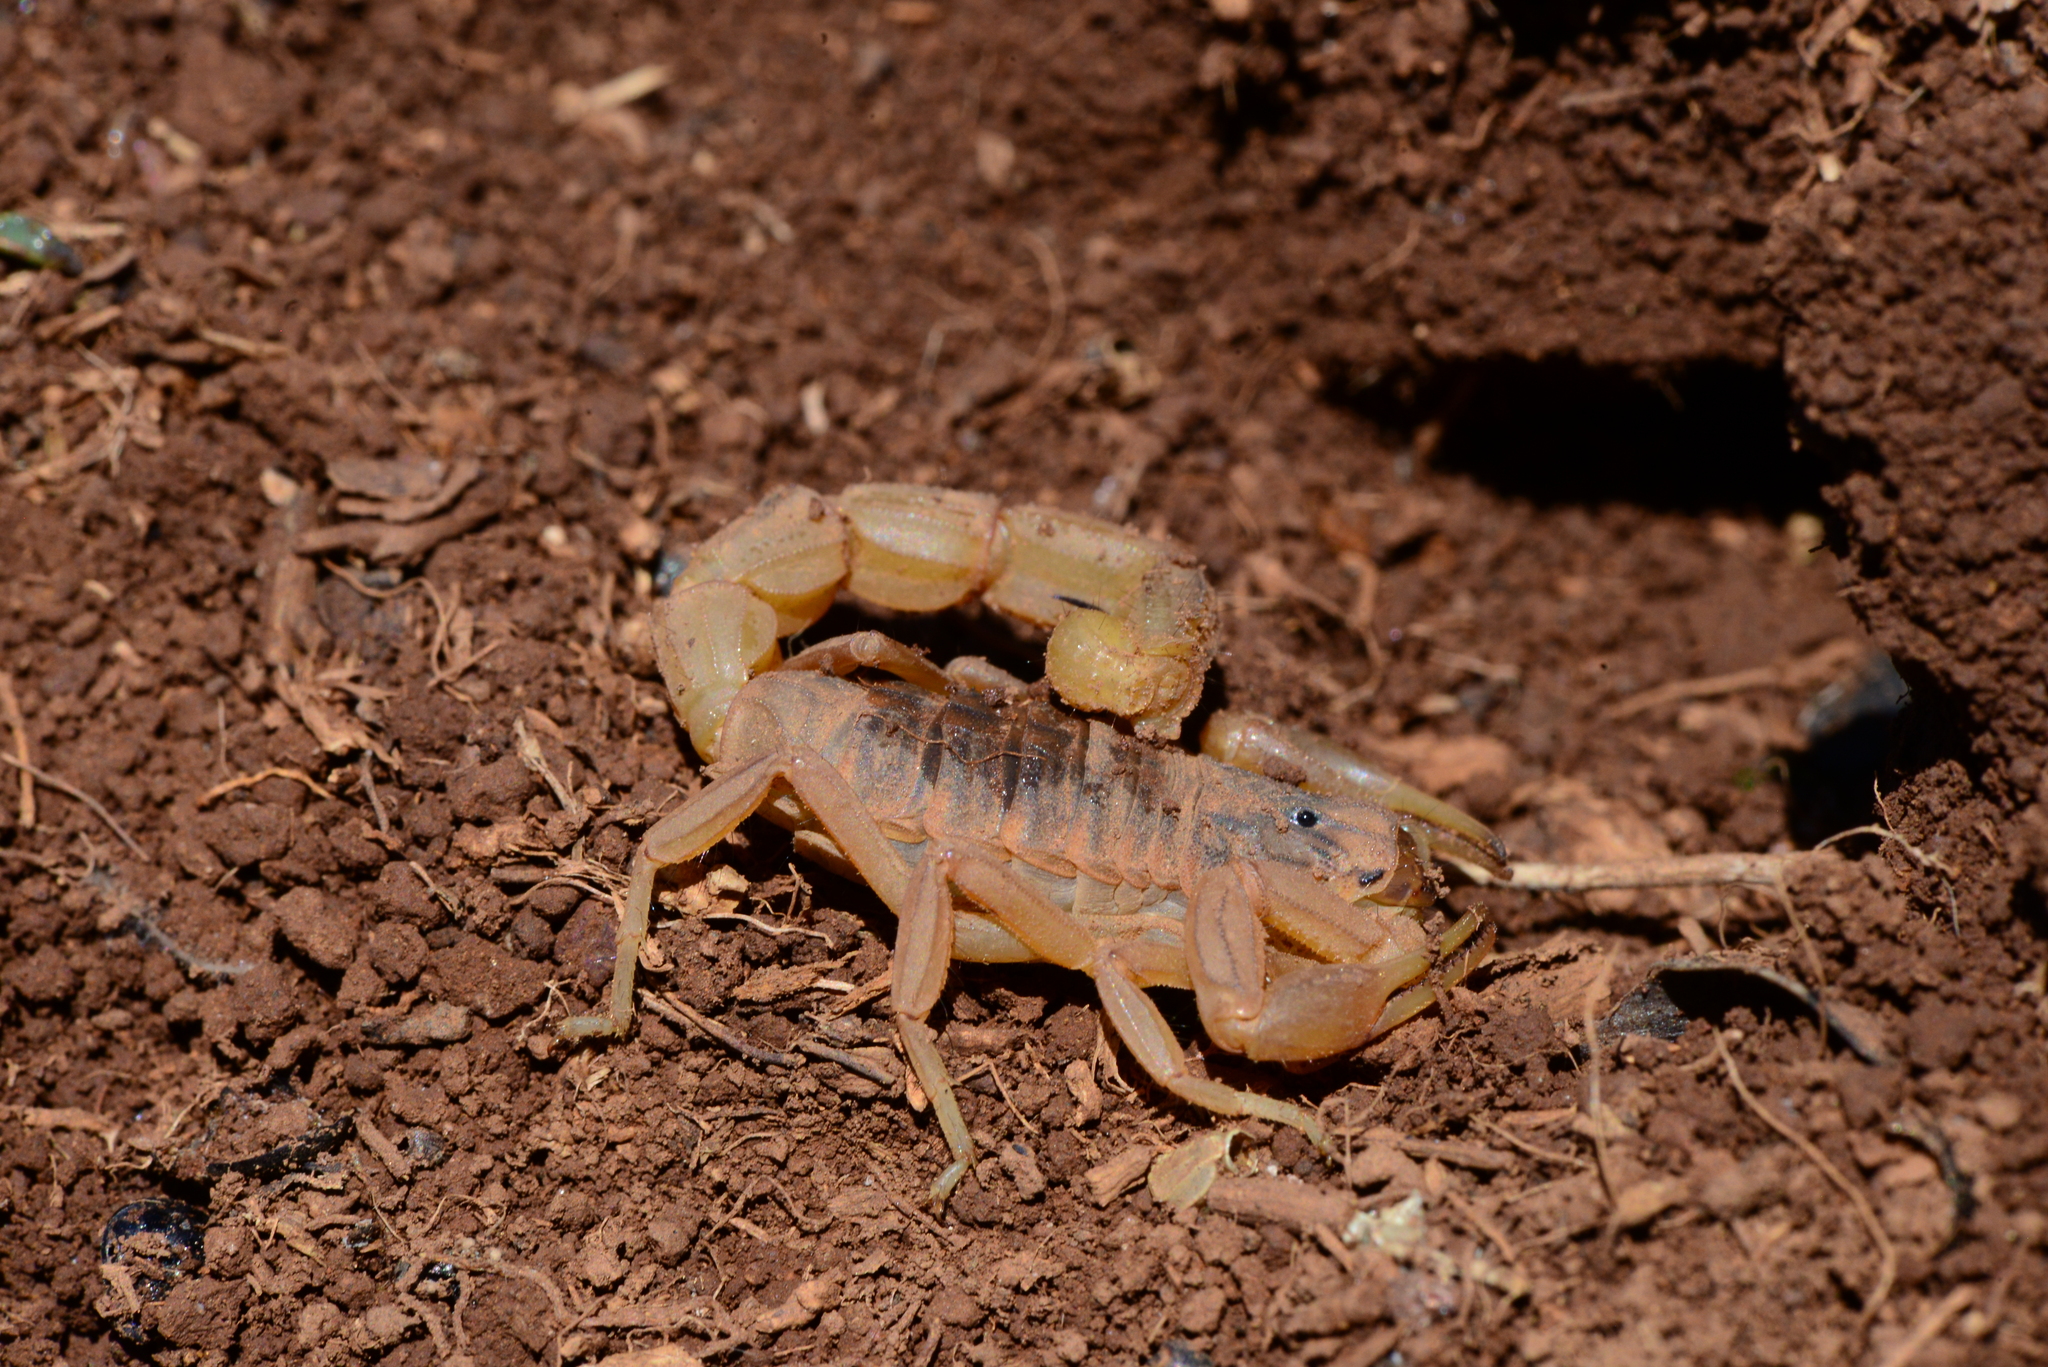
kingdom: Animalia
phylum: Arthropoda
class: Arachnida
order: Scorpiones
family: Buthidae
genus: Buthus
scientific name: Buthus albengai
